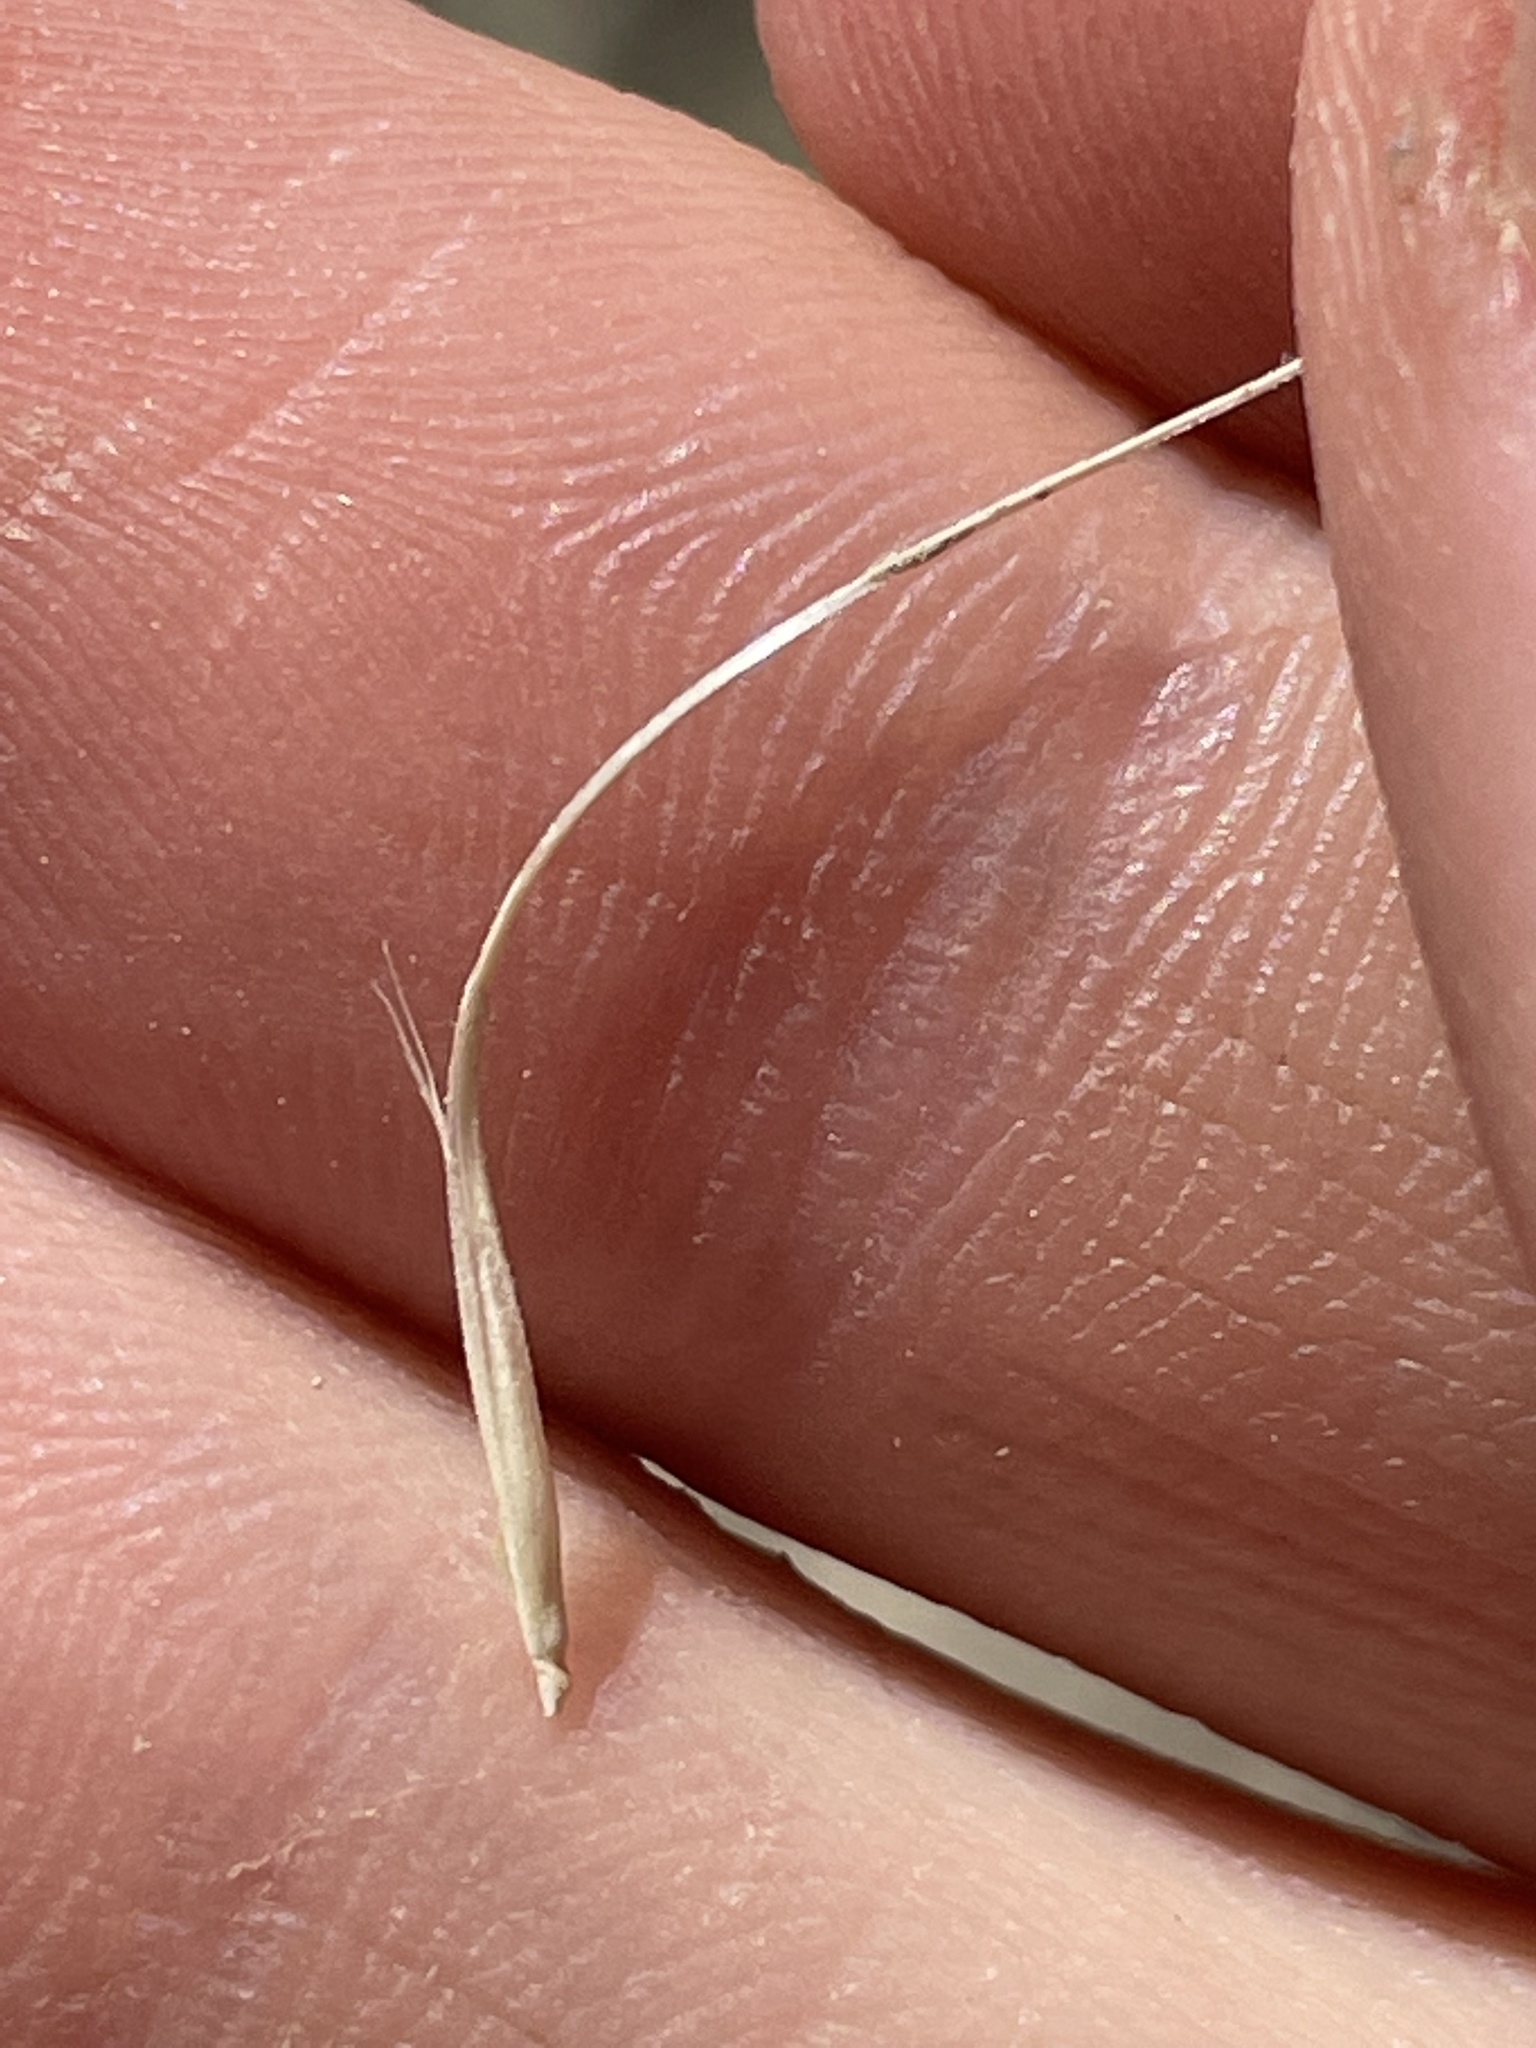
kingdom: Plantae
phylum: Tracheophyta
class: Liliopsida
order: Poales
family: Poaceae
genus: Elymus
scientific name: Elymus elymoides
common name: Bottlebrush squirreltail
